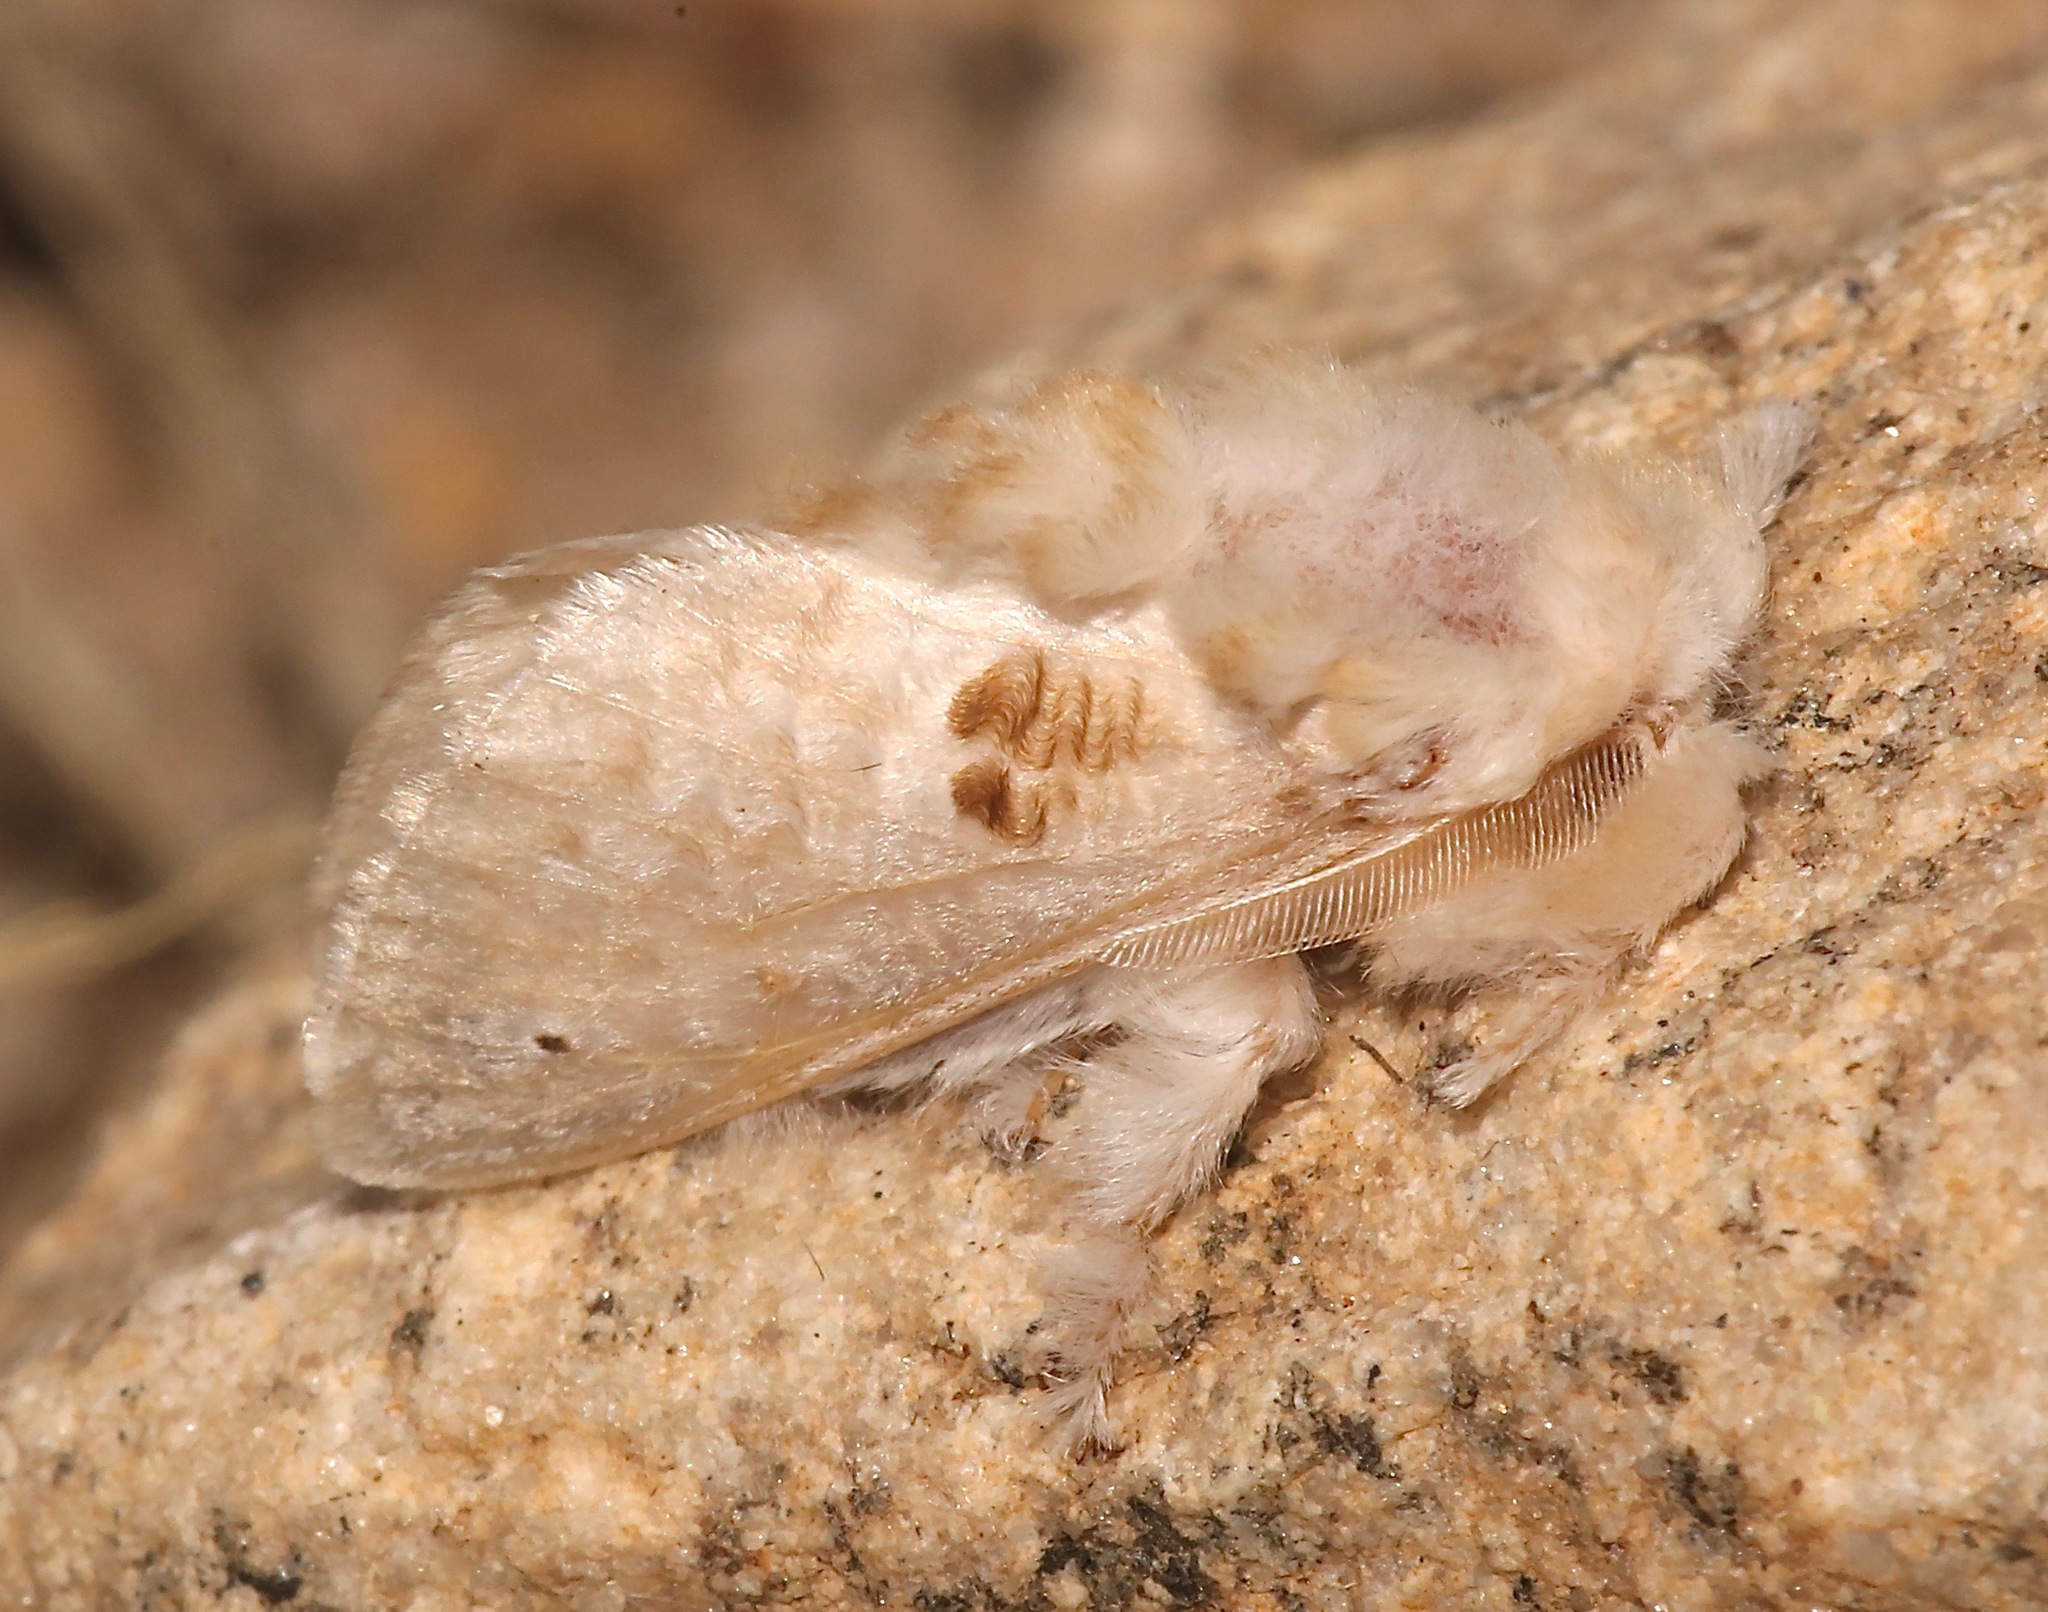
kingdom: Animalia
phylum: Arthropoda
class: Insecta
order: Lepidoptera
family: Megalopygidae
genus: Megalopyge
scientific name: Megalopyge lapena
